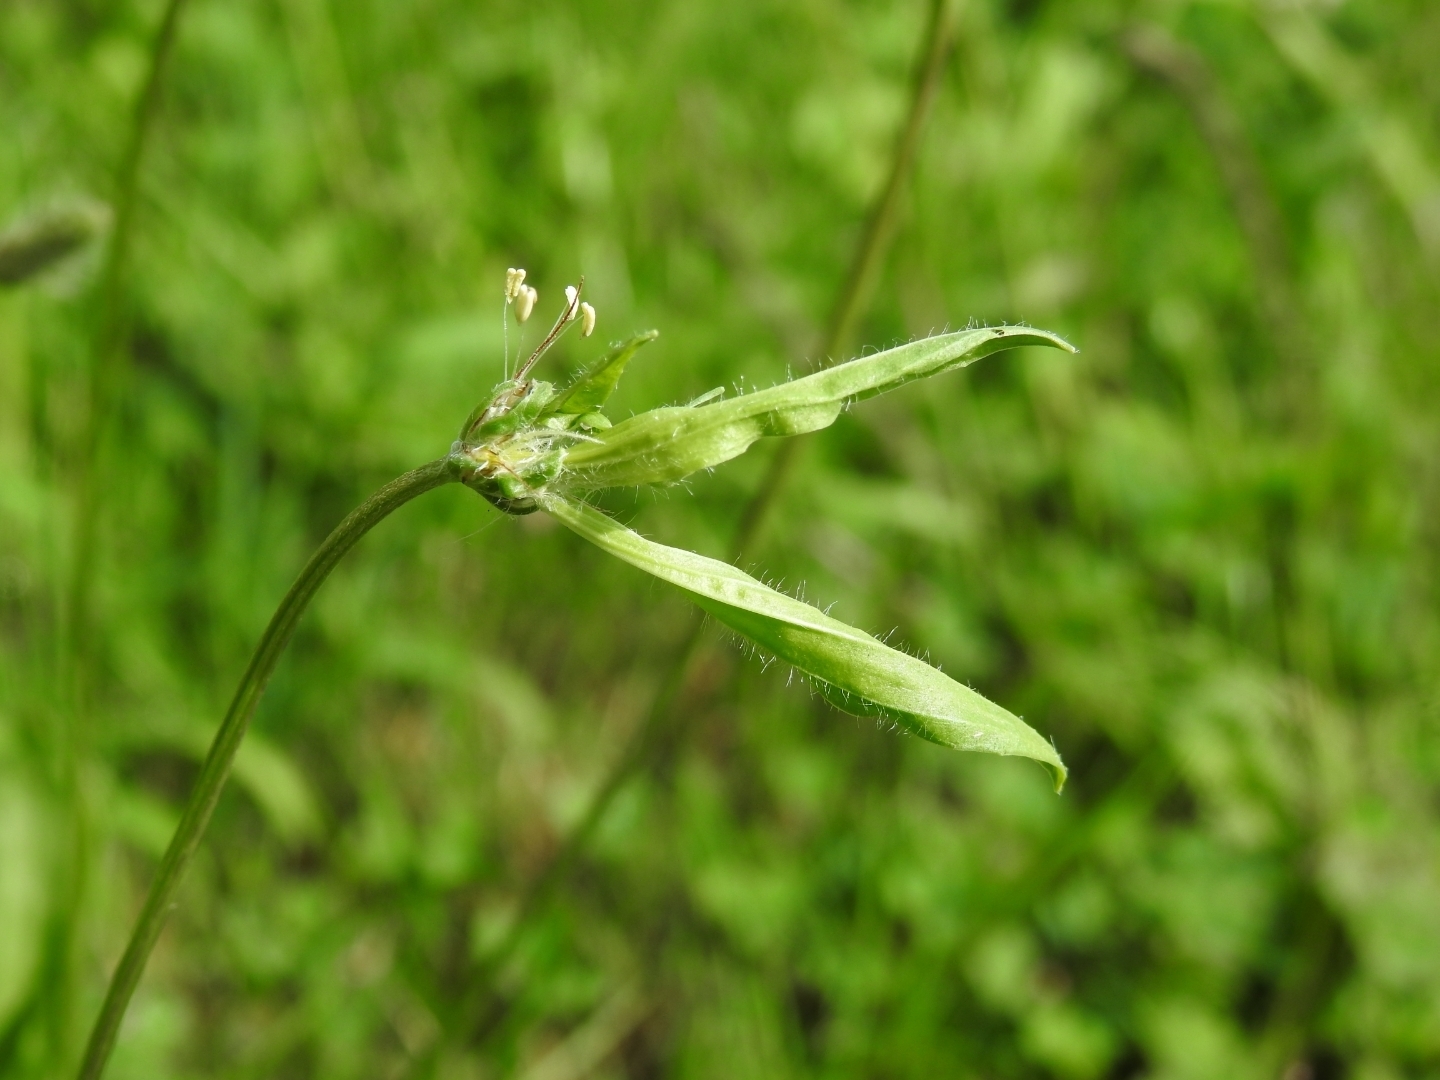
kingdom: Plantae
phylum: Tracheophyta
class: Magnoliopsida
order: Lamiales
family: Plantaginaceae
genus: Plantago
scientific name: Plantago lanceolata
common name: Ribwort plantain
